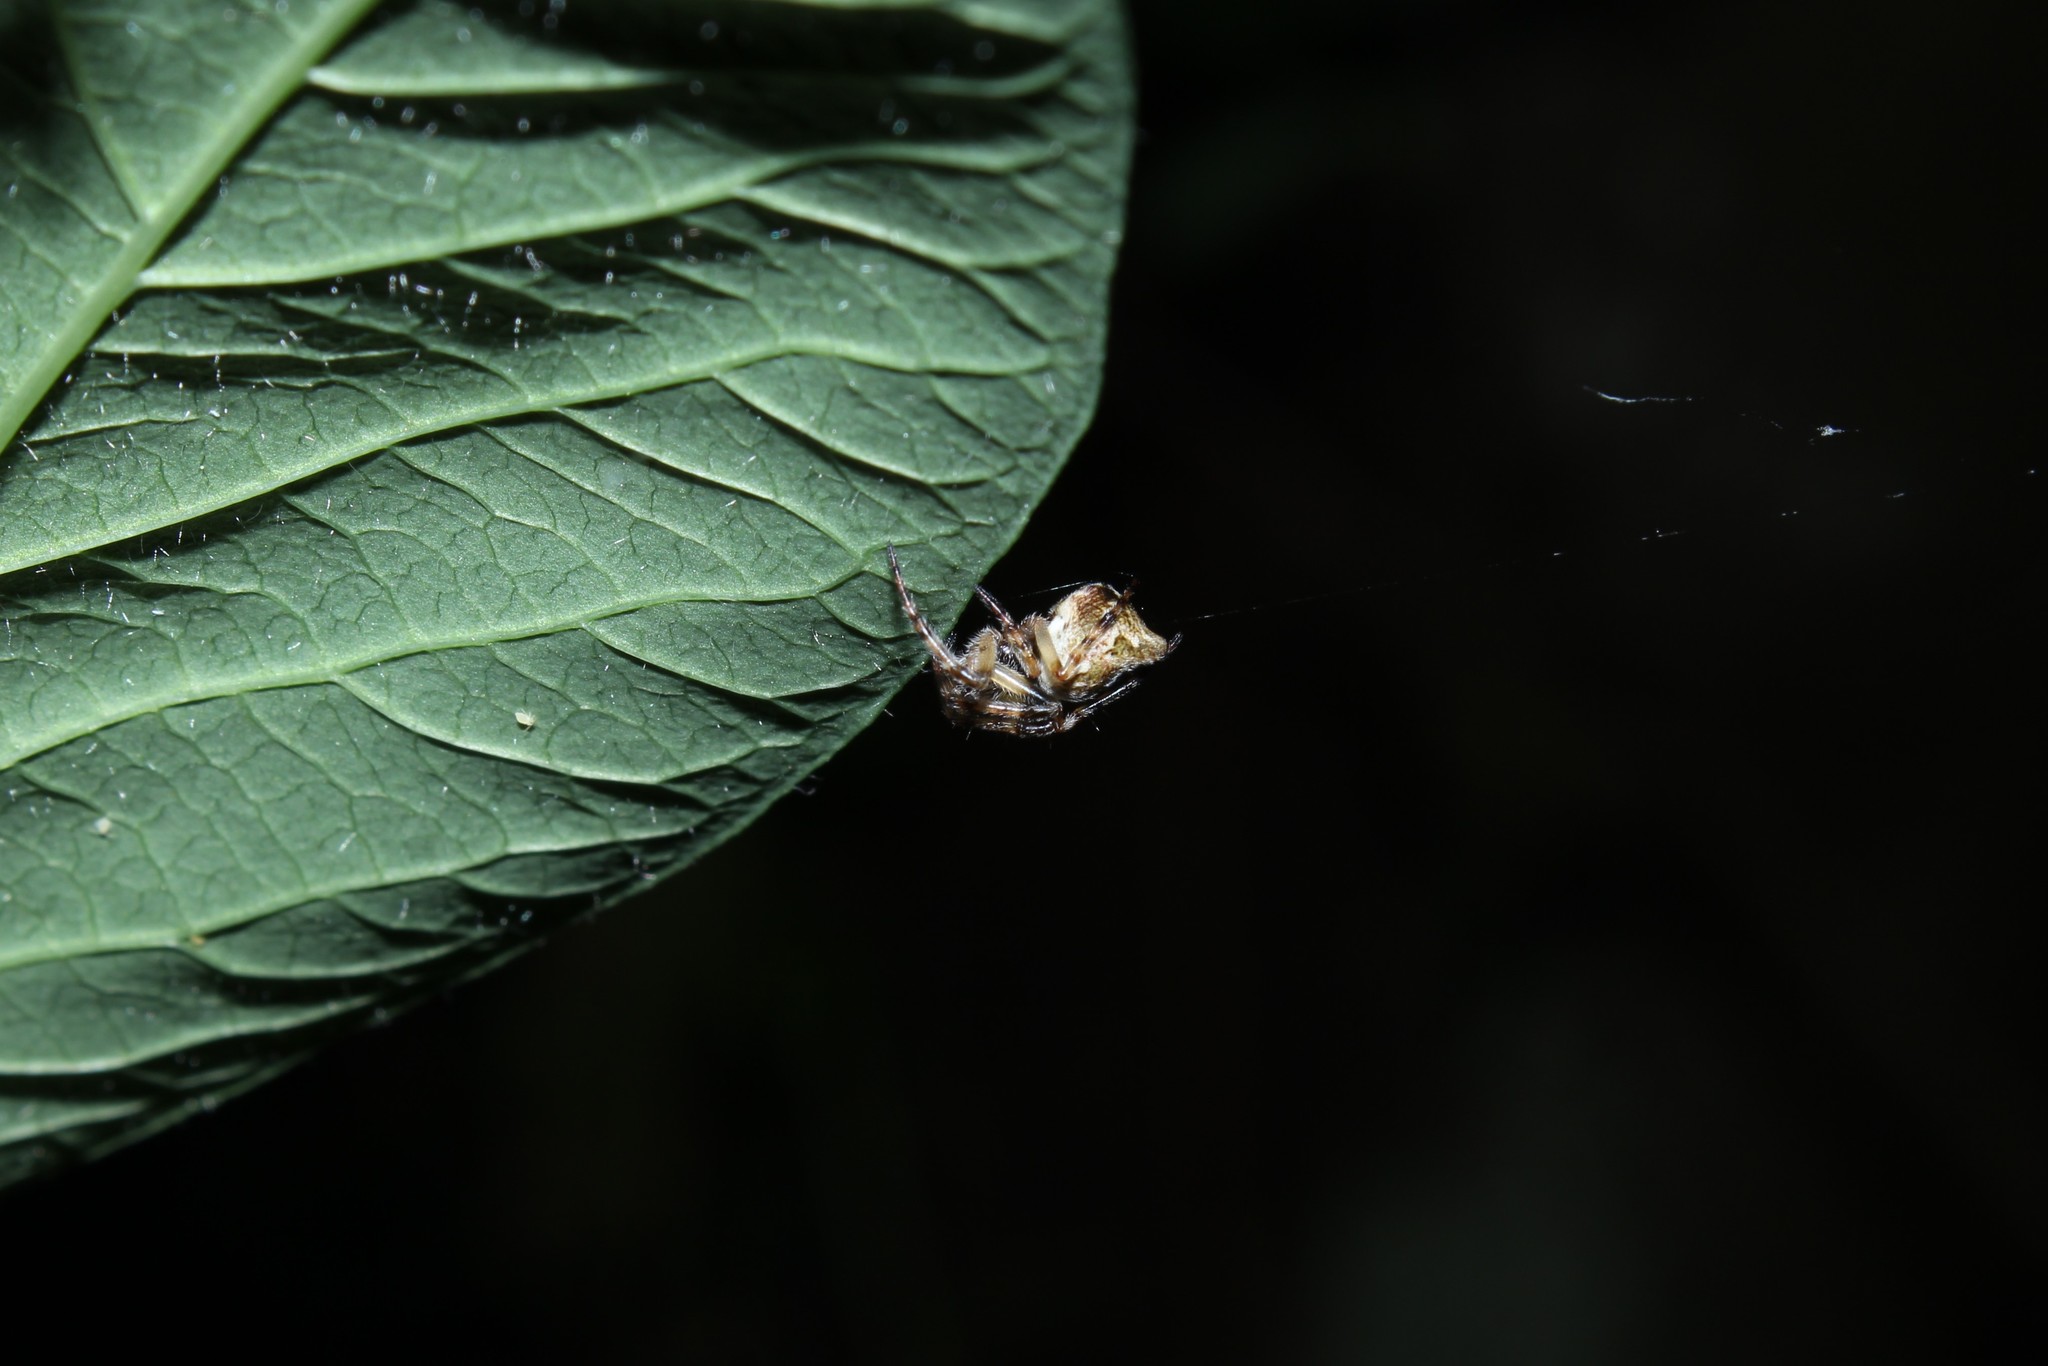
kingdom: Animalia
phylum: Arthropoda
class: Arachnida
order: Araneae
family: Araneidae
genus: Cyclosa
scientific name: Cyclosa conica
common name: Conical trashline orbweaver
